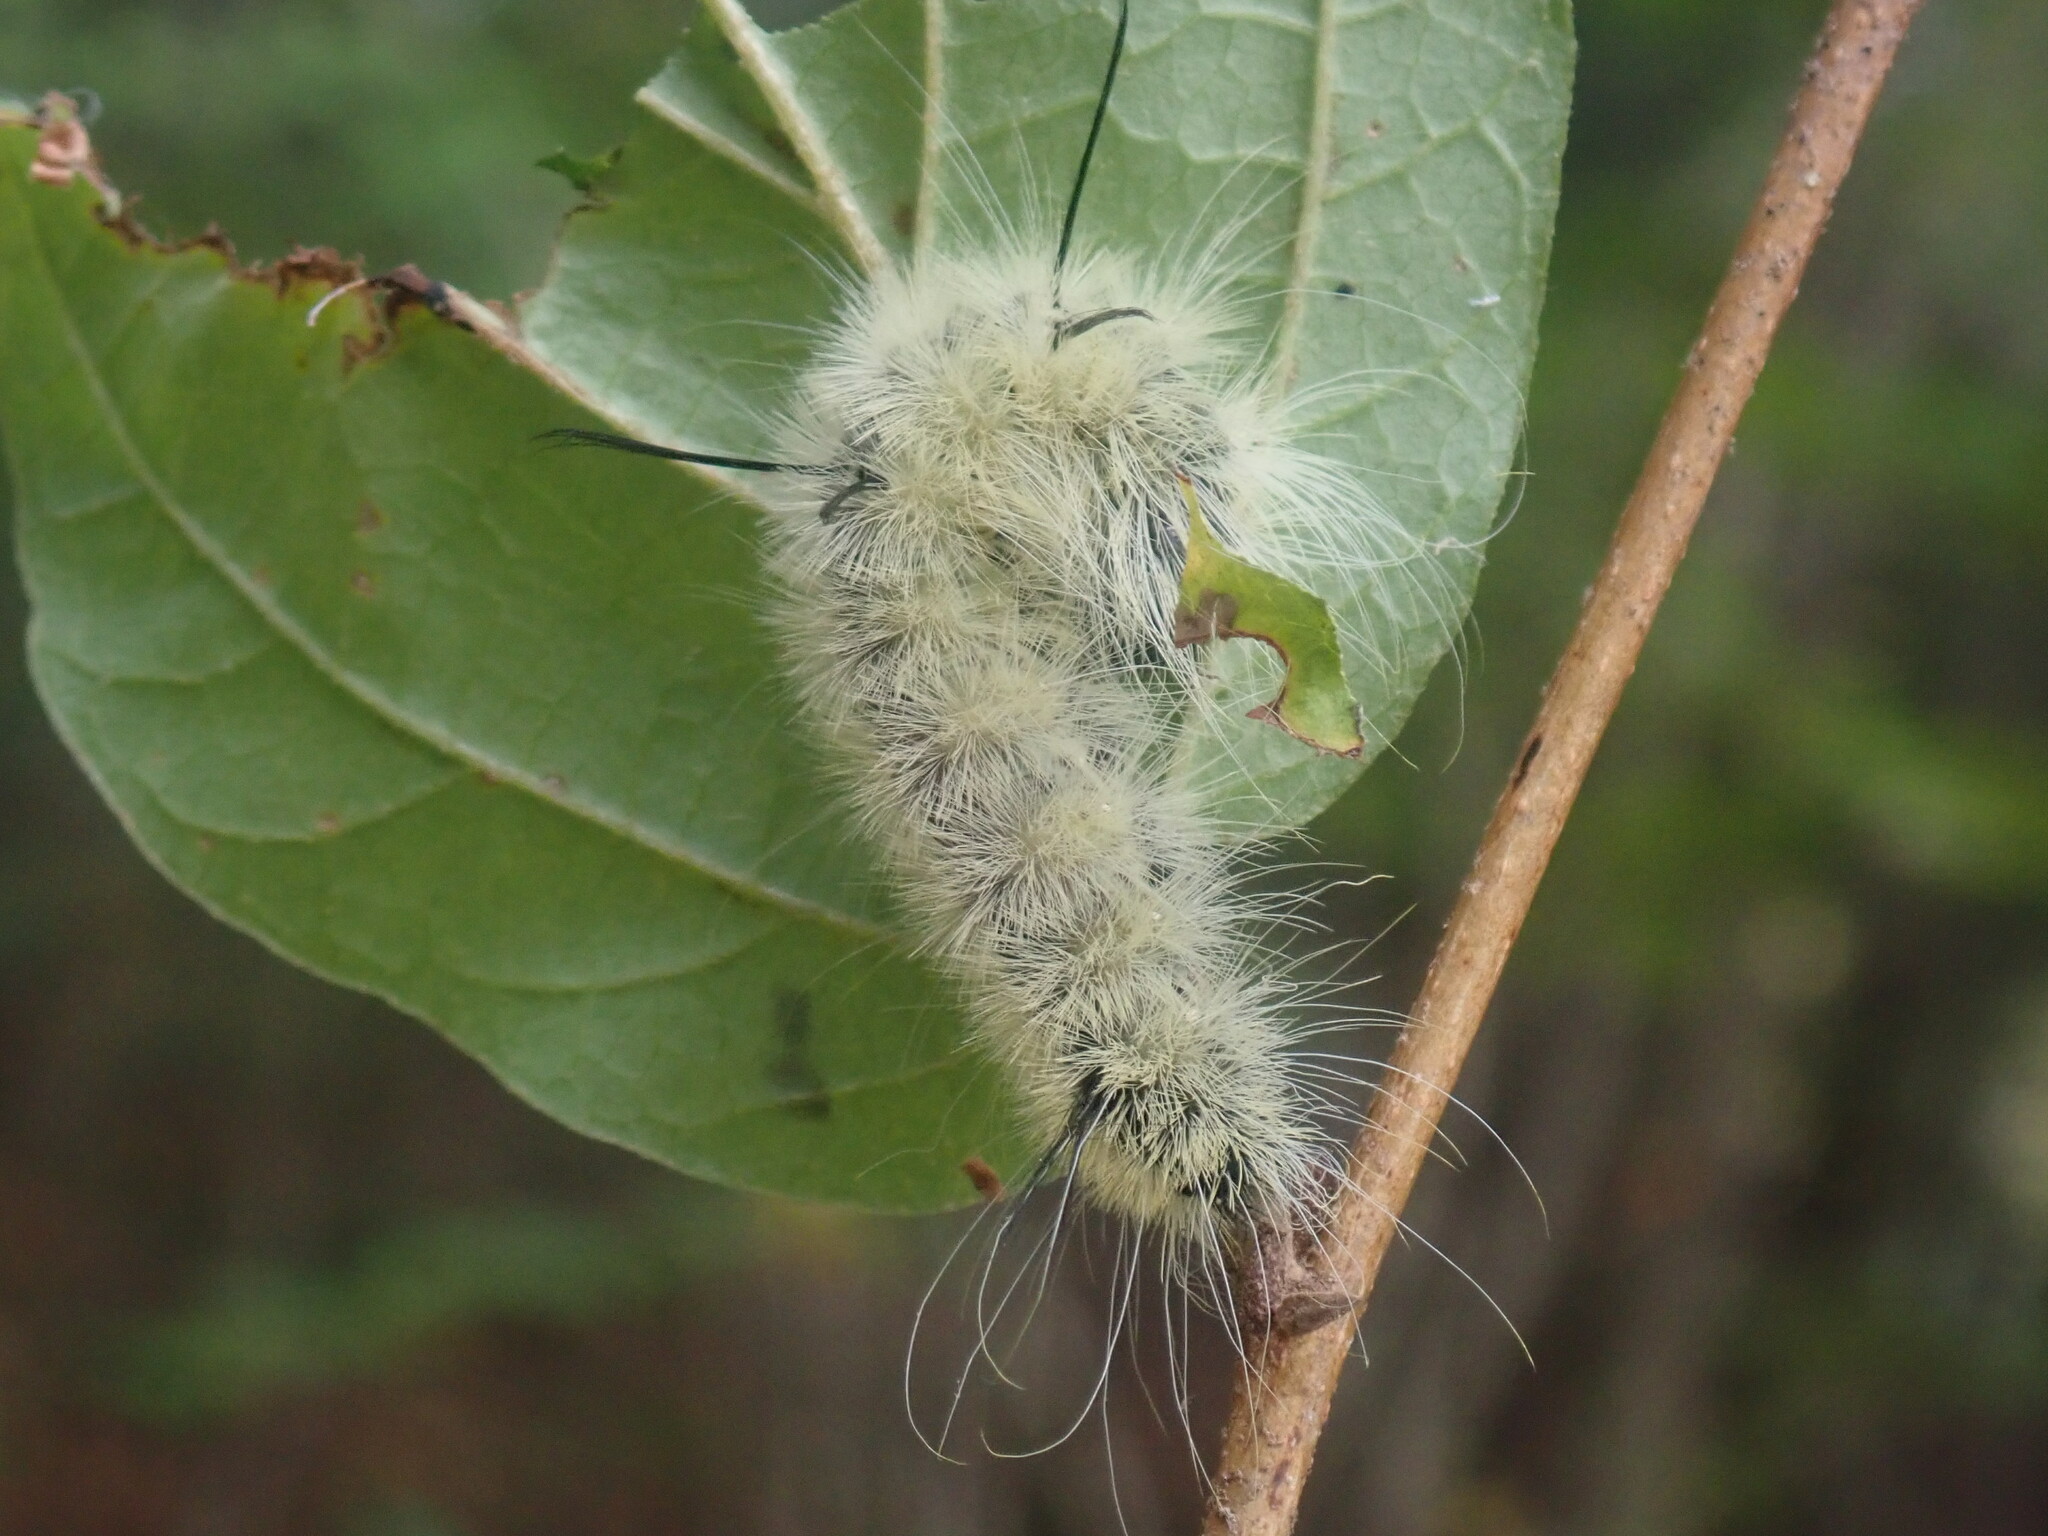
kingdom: Animalia
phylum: Arthropoda
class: Insecta
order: Lepidoptera
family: Noctuidae
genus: Acronicta
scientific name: Acronicta americana
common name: American dagger
